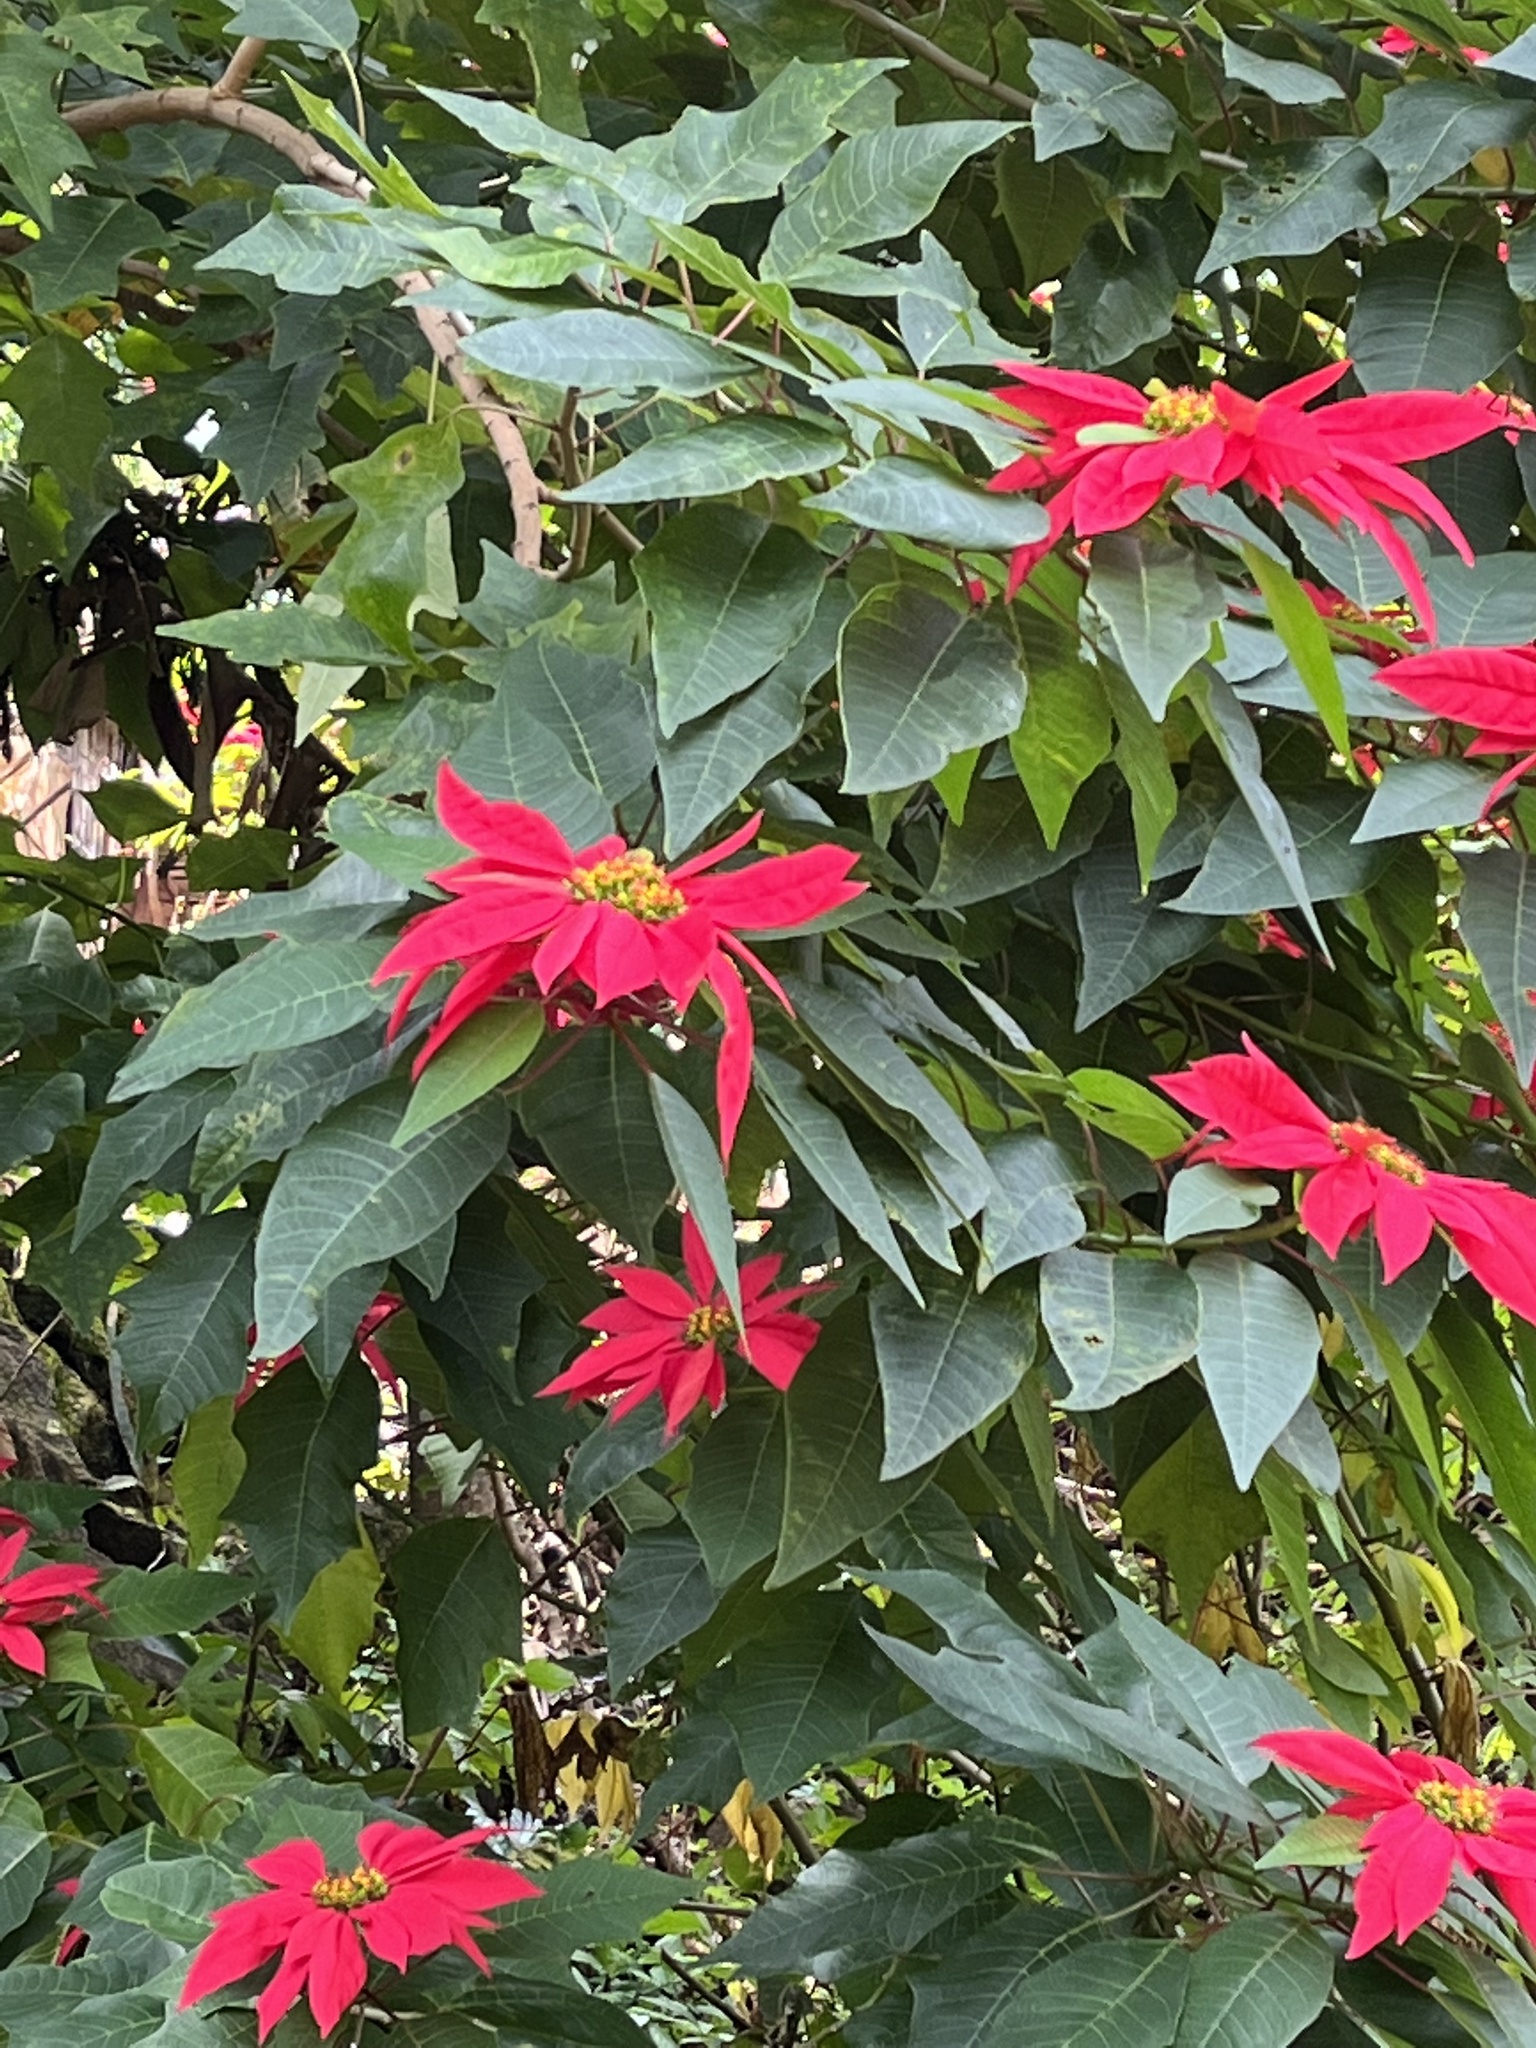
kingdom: Plantae
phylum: Tracheophyta
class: Magnoliopsida
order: Malpighiales
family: Euphorbiaceae
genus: Euphorbia
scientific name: Euphorbia pulcherrima
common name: Christmas-flower
